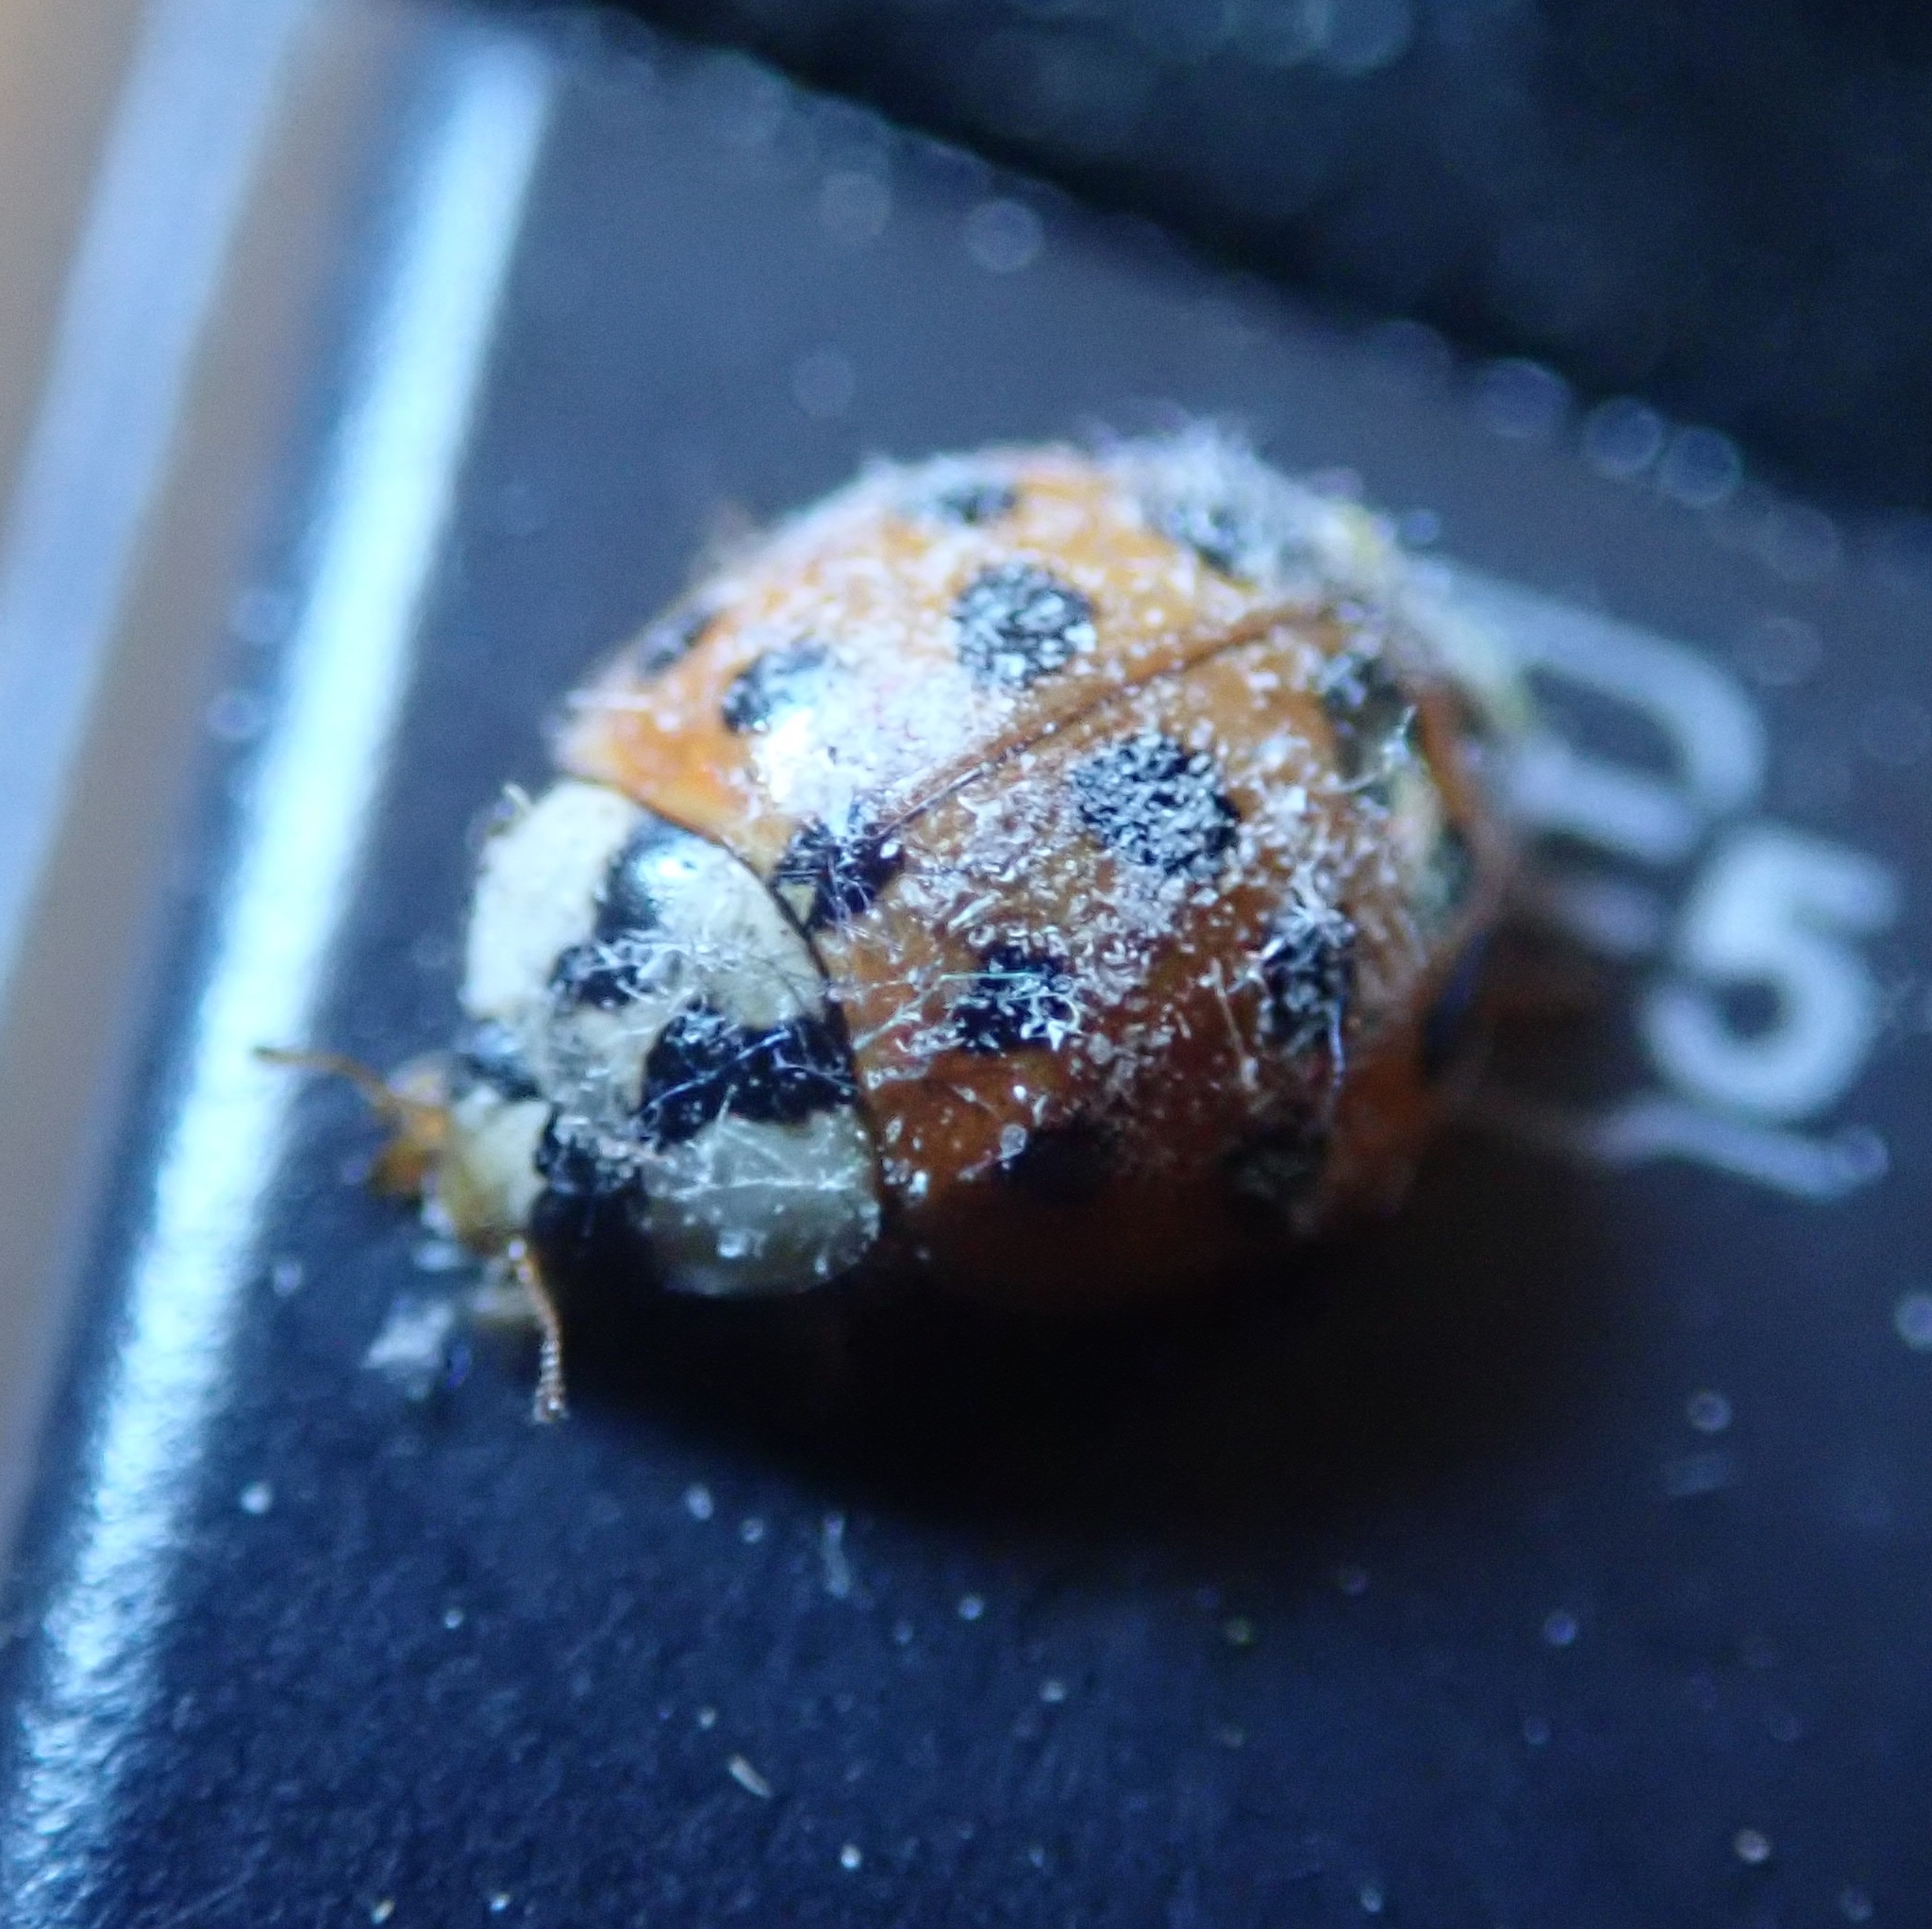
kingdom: Animalia
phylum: Arthropoda
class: Insecta
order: Coleoptera
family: Coccinellidae
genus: Harmonia
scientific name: Harmonia axyridis
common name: Harlequin ladybird
